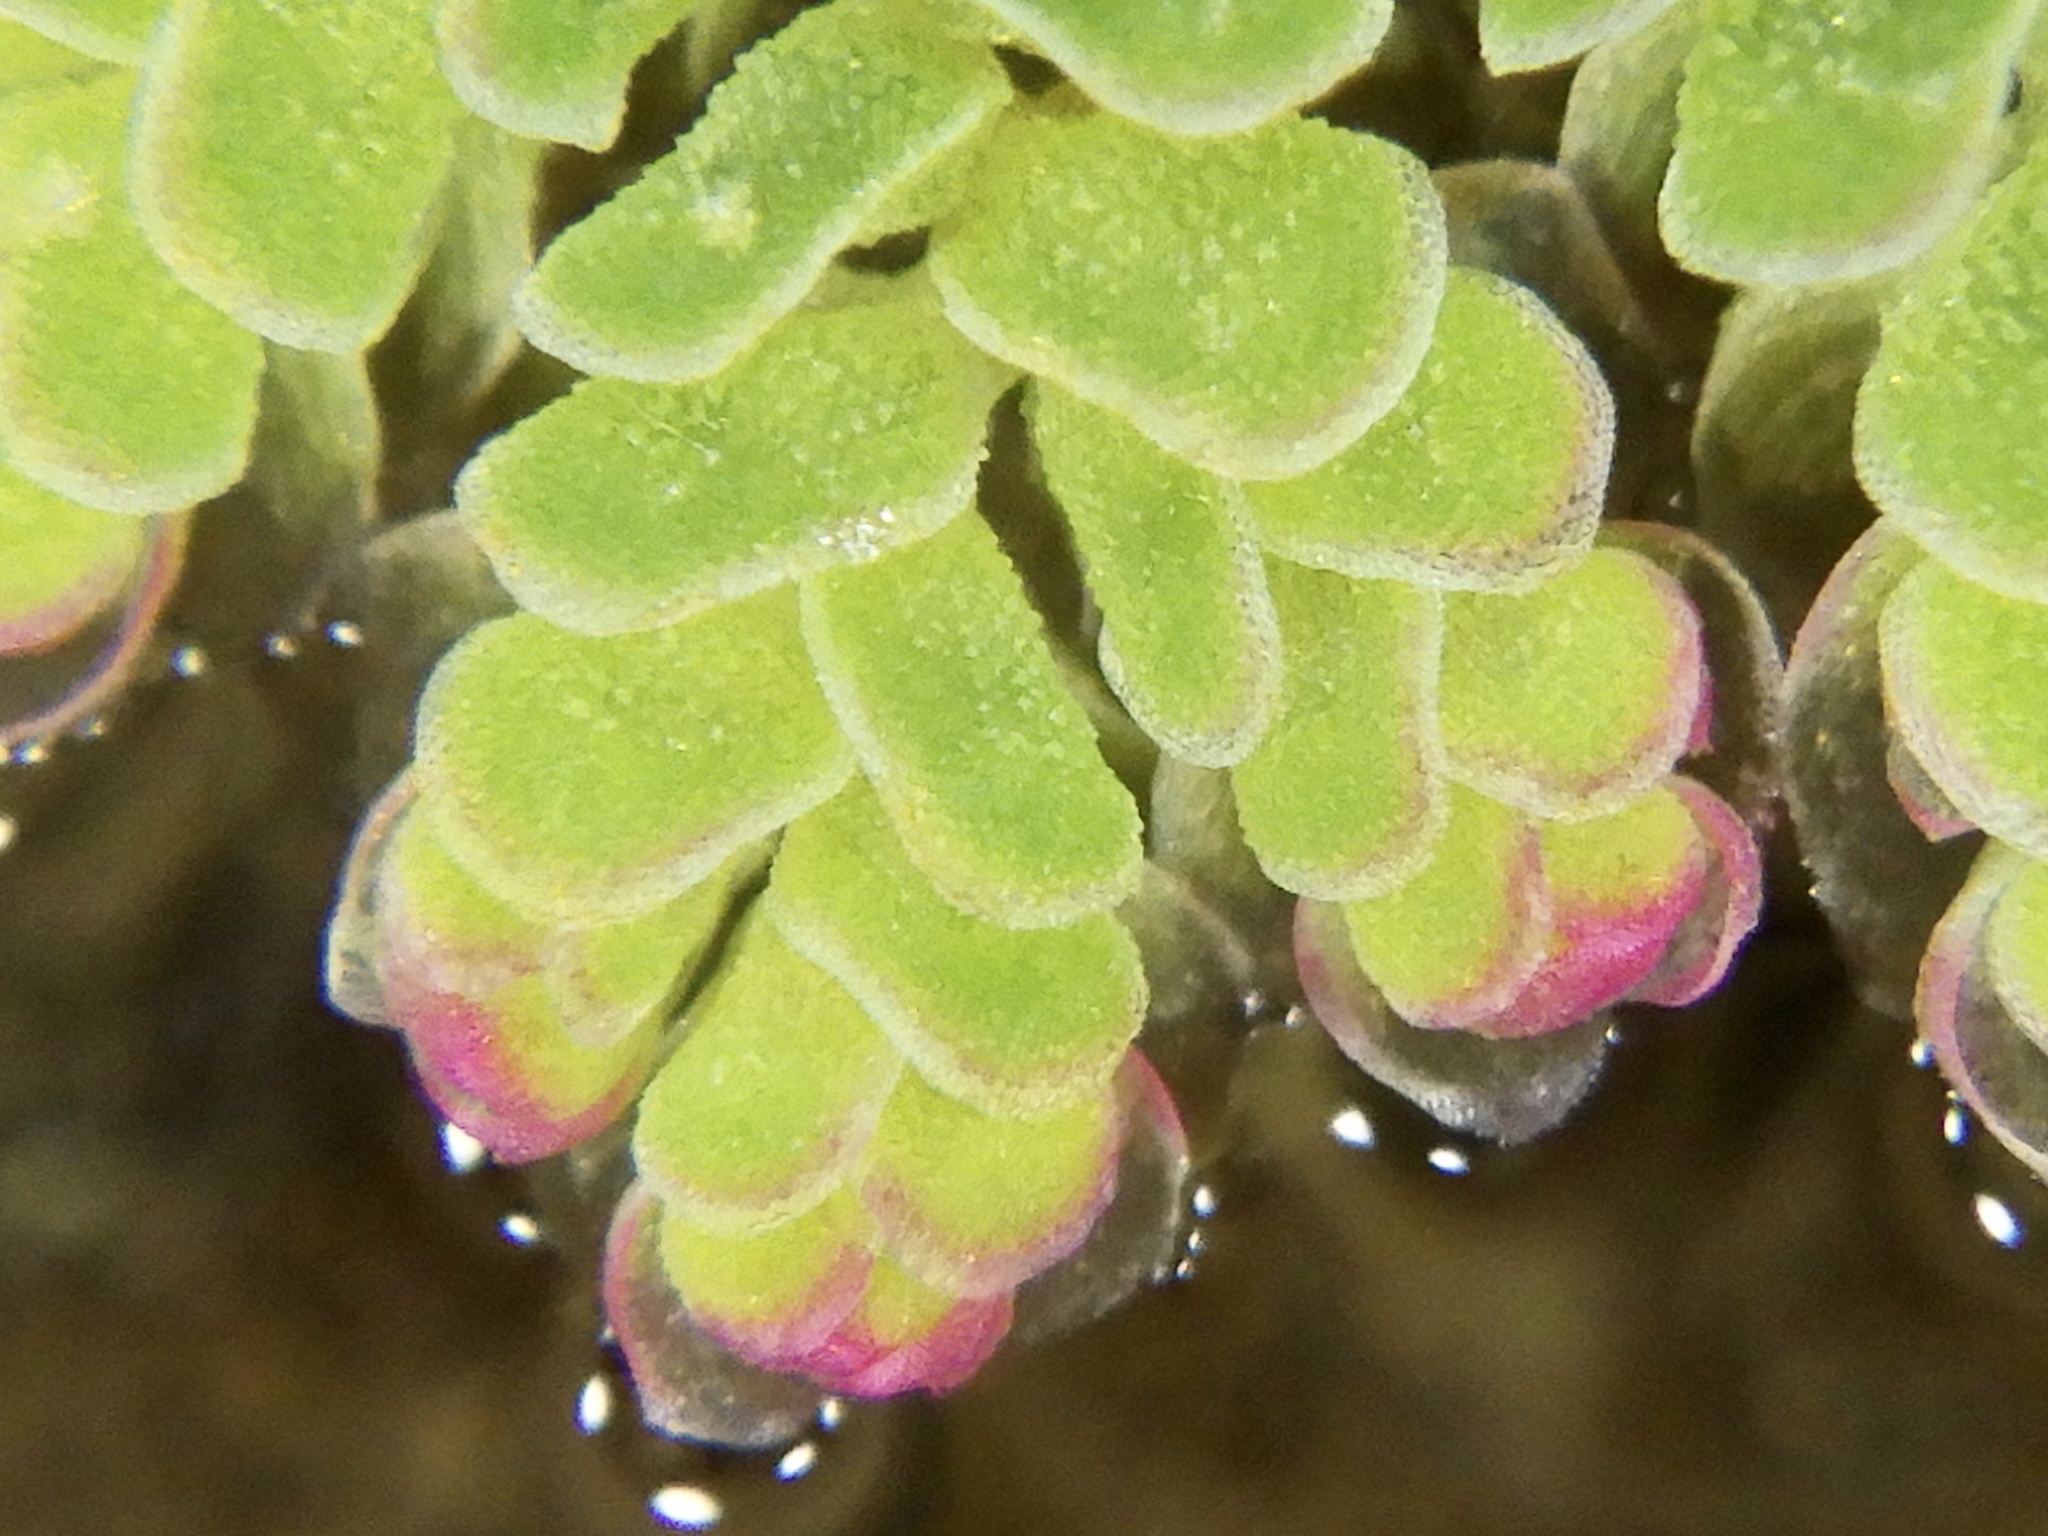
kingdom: Plantae
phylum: Tracheophyta
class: Polypodiopsida
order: Salviniales
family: Salviniaceae
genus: Azolla
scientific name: Azolla cristata
